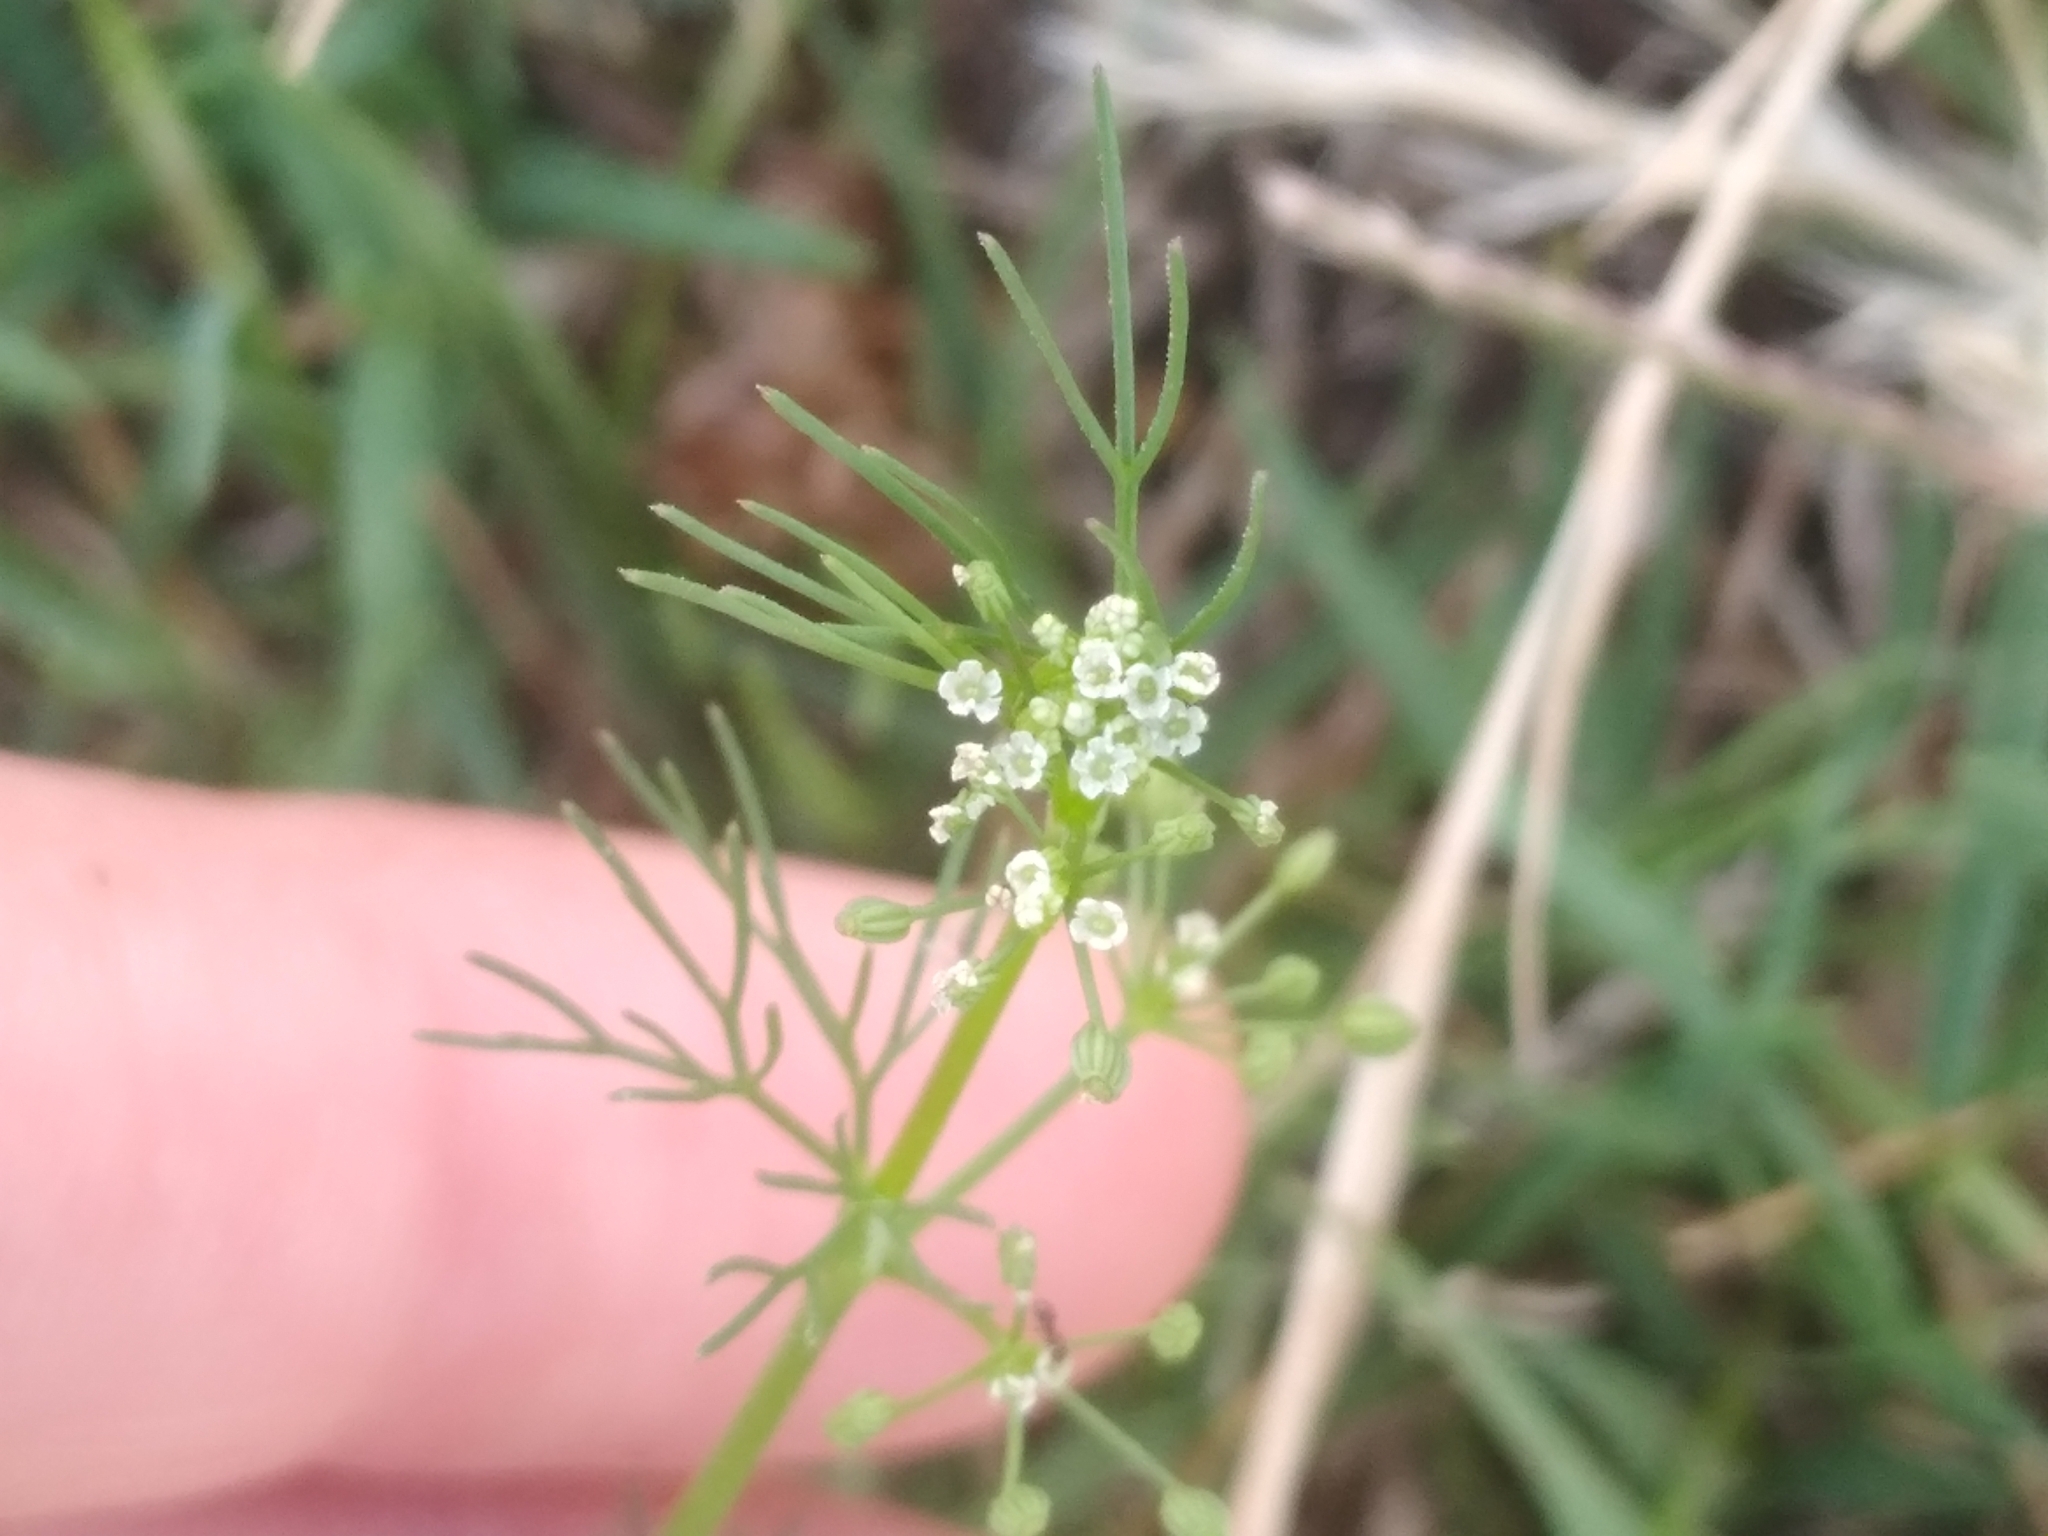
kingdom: Plantae
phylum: Tracheophyta
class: Magnoliopsida
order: Apiales
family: Apiaceae
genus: Cyclospermum
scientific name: Cyclospermum leptophyllum
